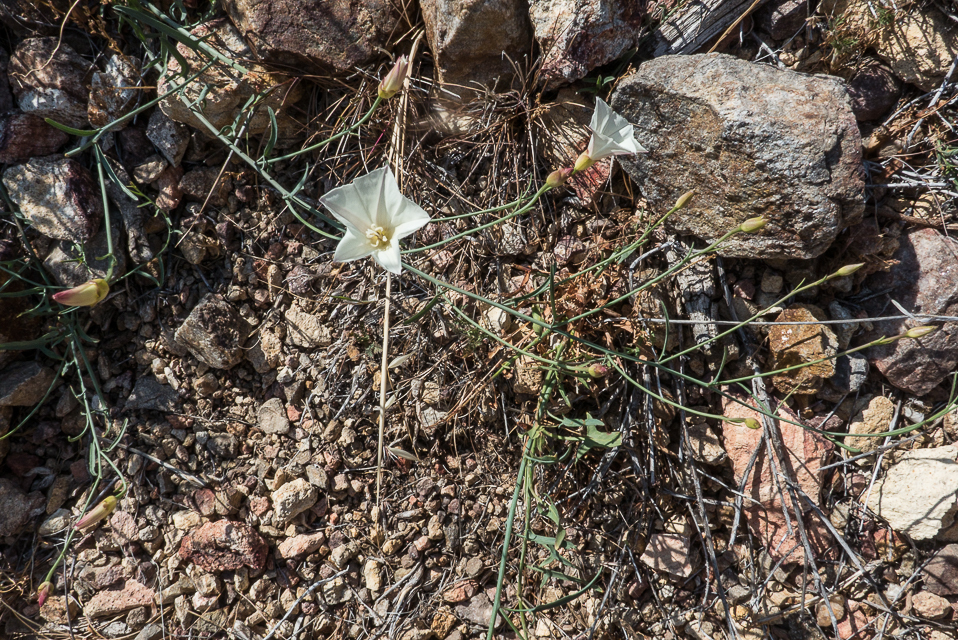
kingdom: Plantae
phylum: Tracheophyta
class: Magnoliopsida
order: Solanales
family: Convolvulaceae
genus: Calystegia
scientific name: Calystegia longipes
